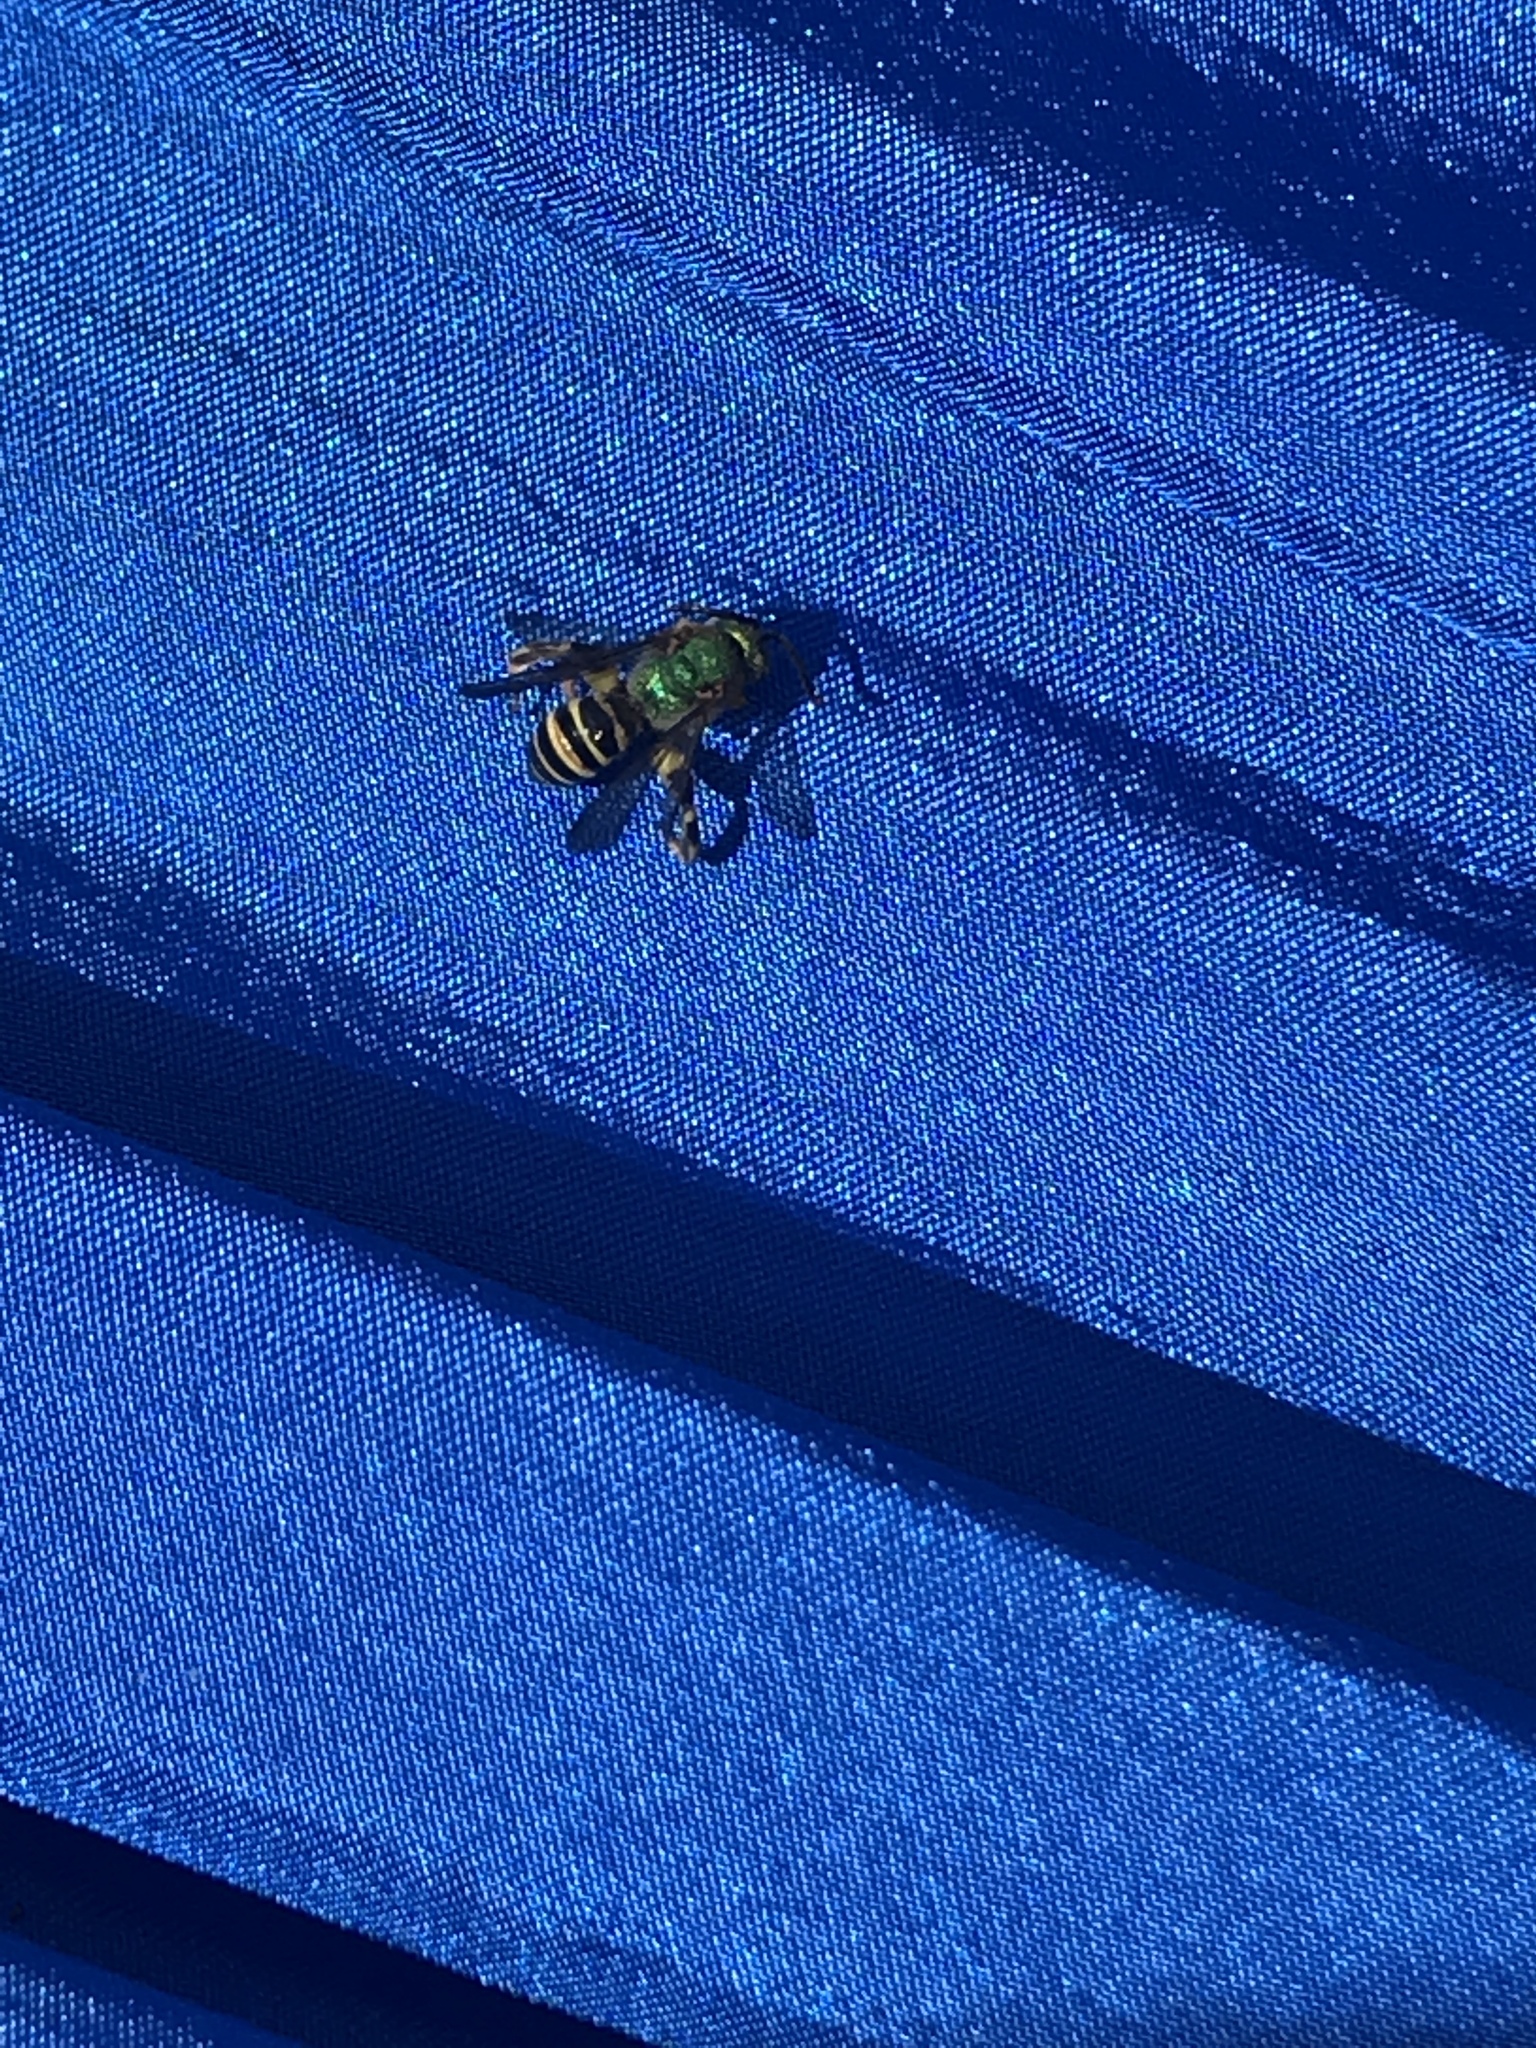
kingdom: Animalia
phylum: Arthropoda
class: Insecta
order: Hymenoptera
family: Halictidae
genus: Agapostemon
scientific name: Agapostemon splendens
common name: Brown-winged striped sweat bee
